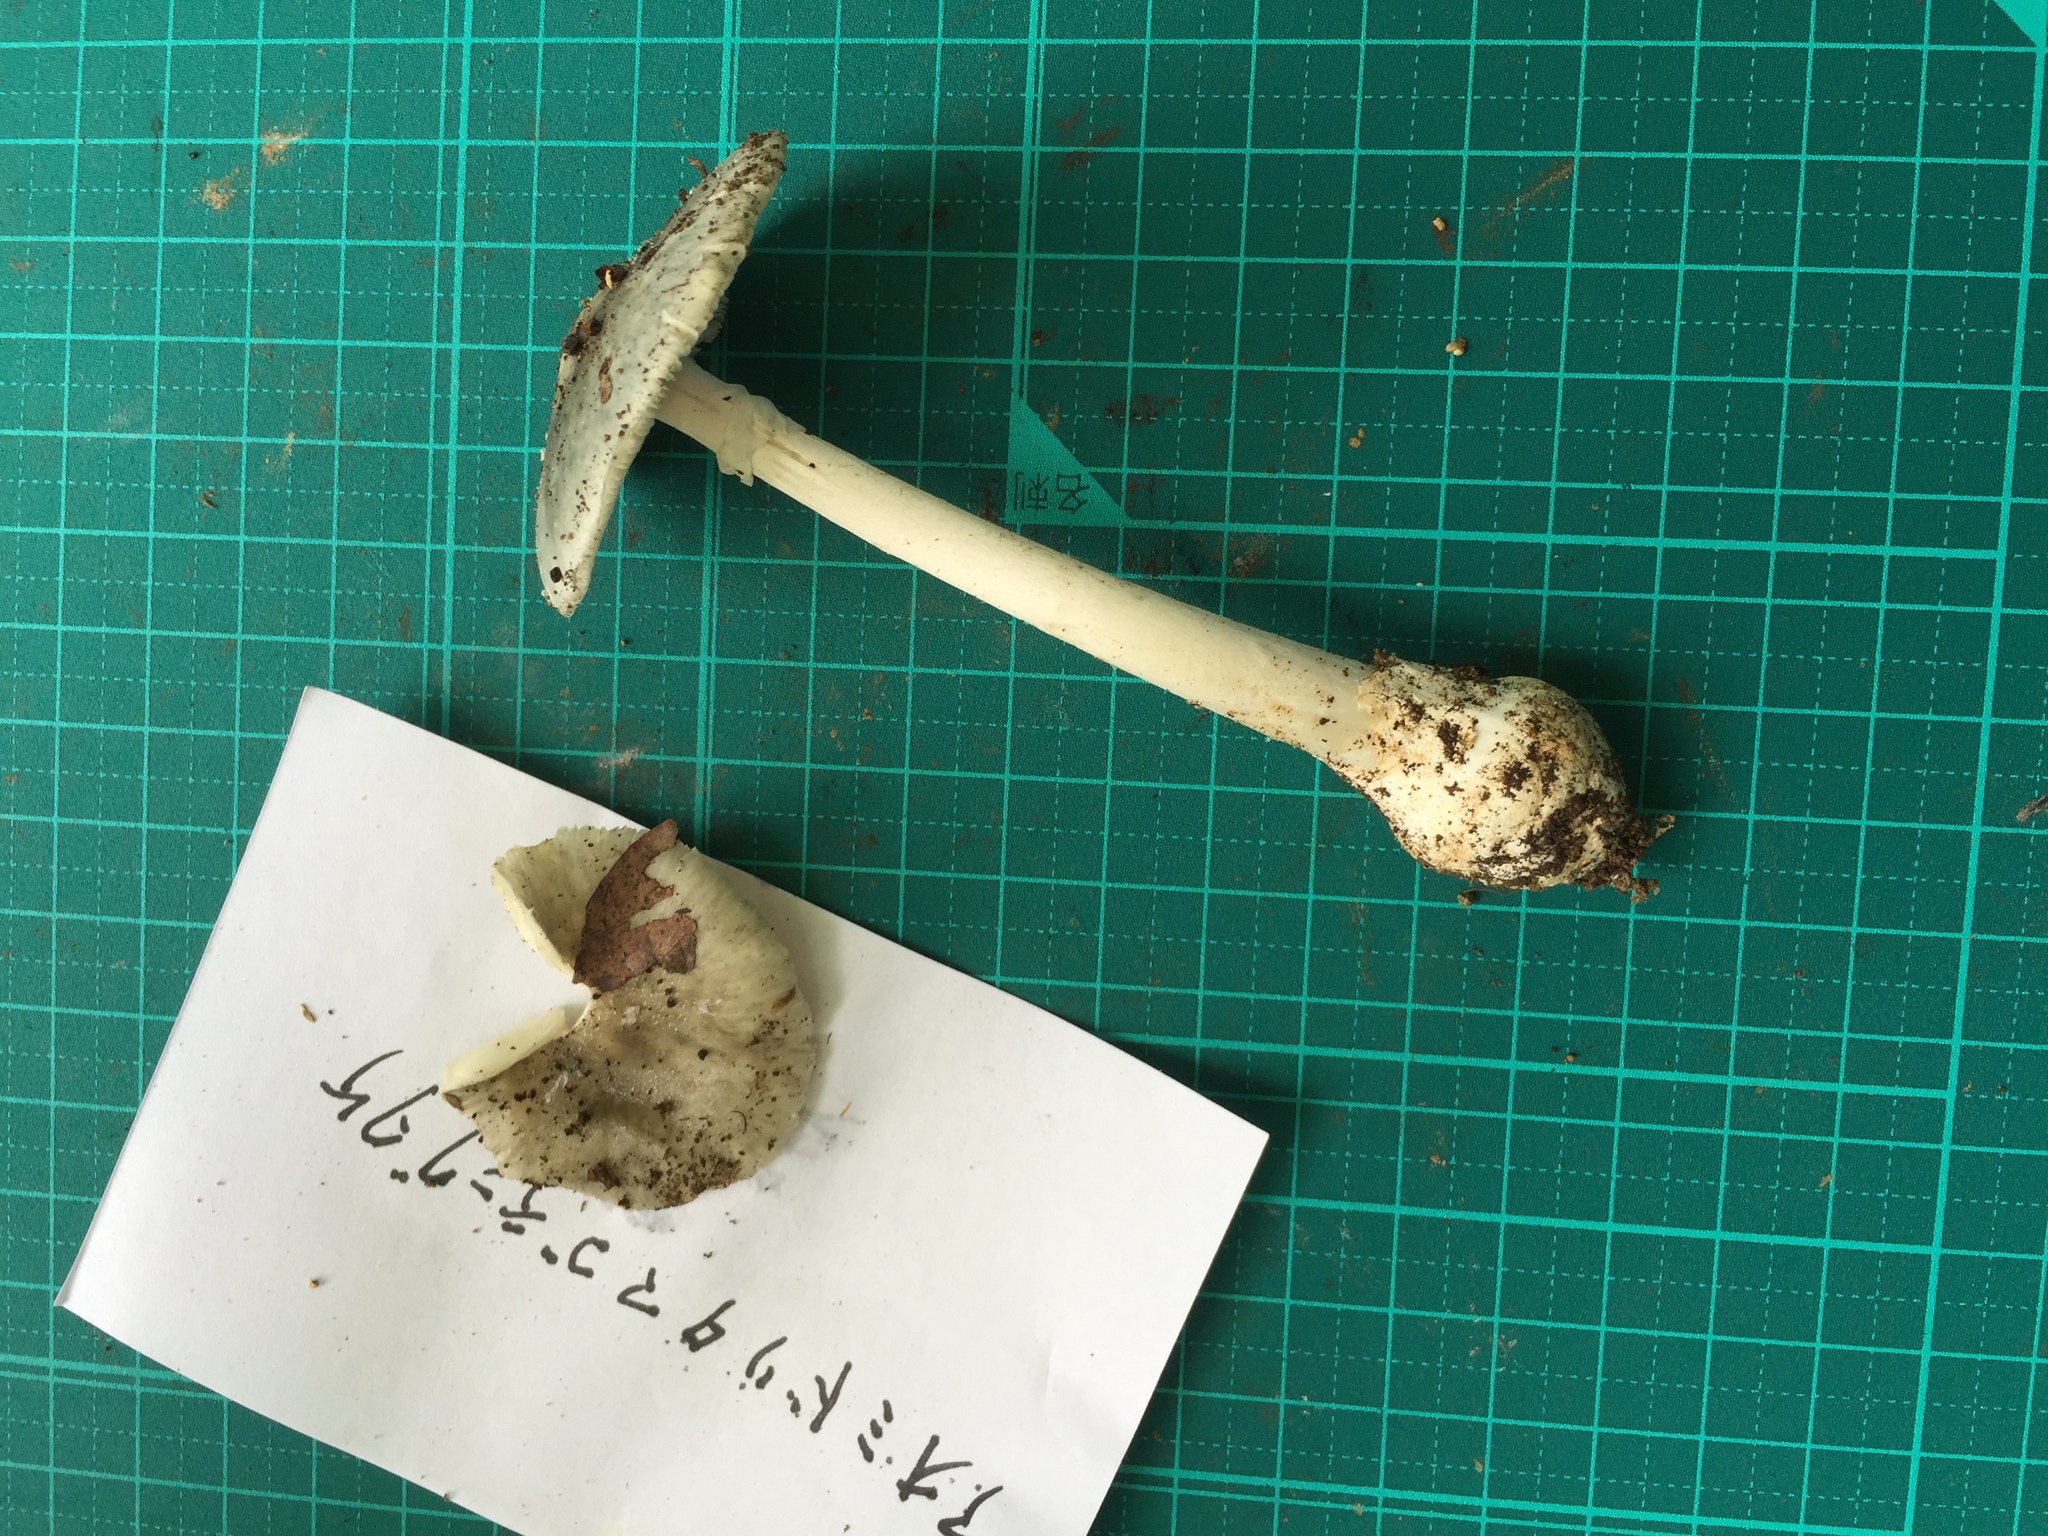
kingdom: Fungi
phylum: Basidiomycota
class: Agaricomycetes
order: Agaricales
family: Amanitaceae
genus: Amanita
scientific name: Amanita griseoturcosa
